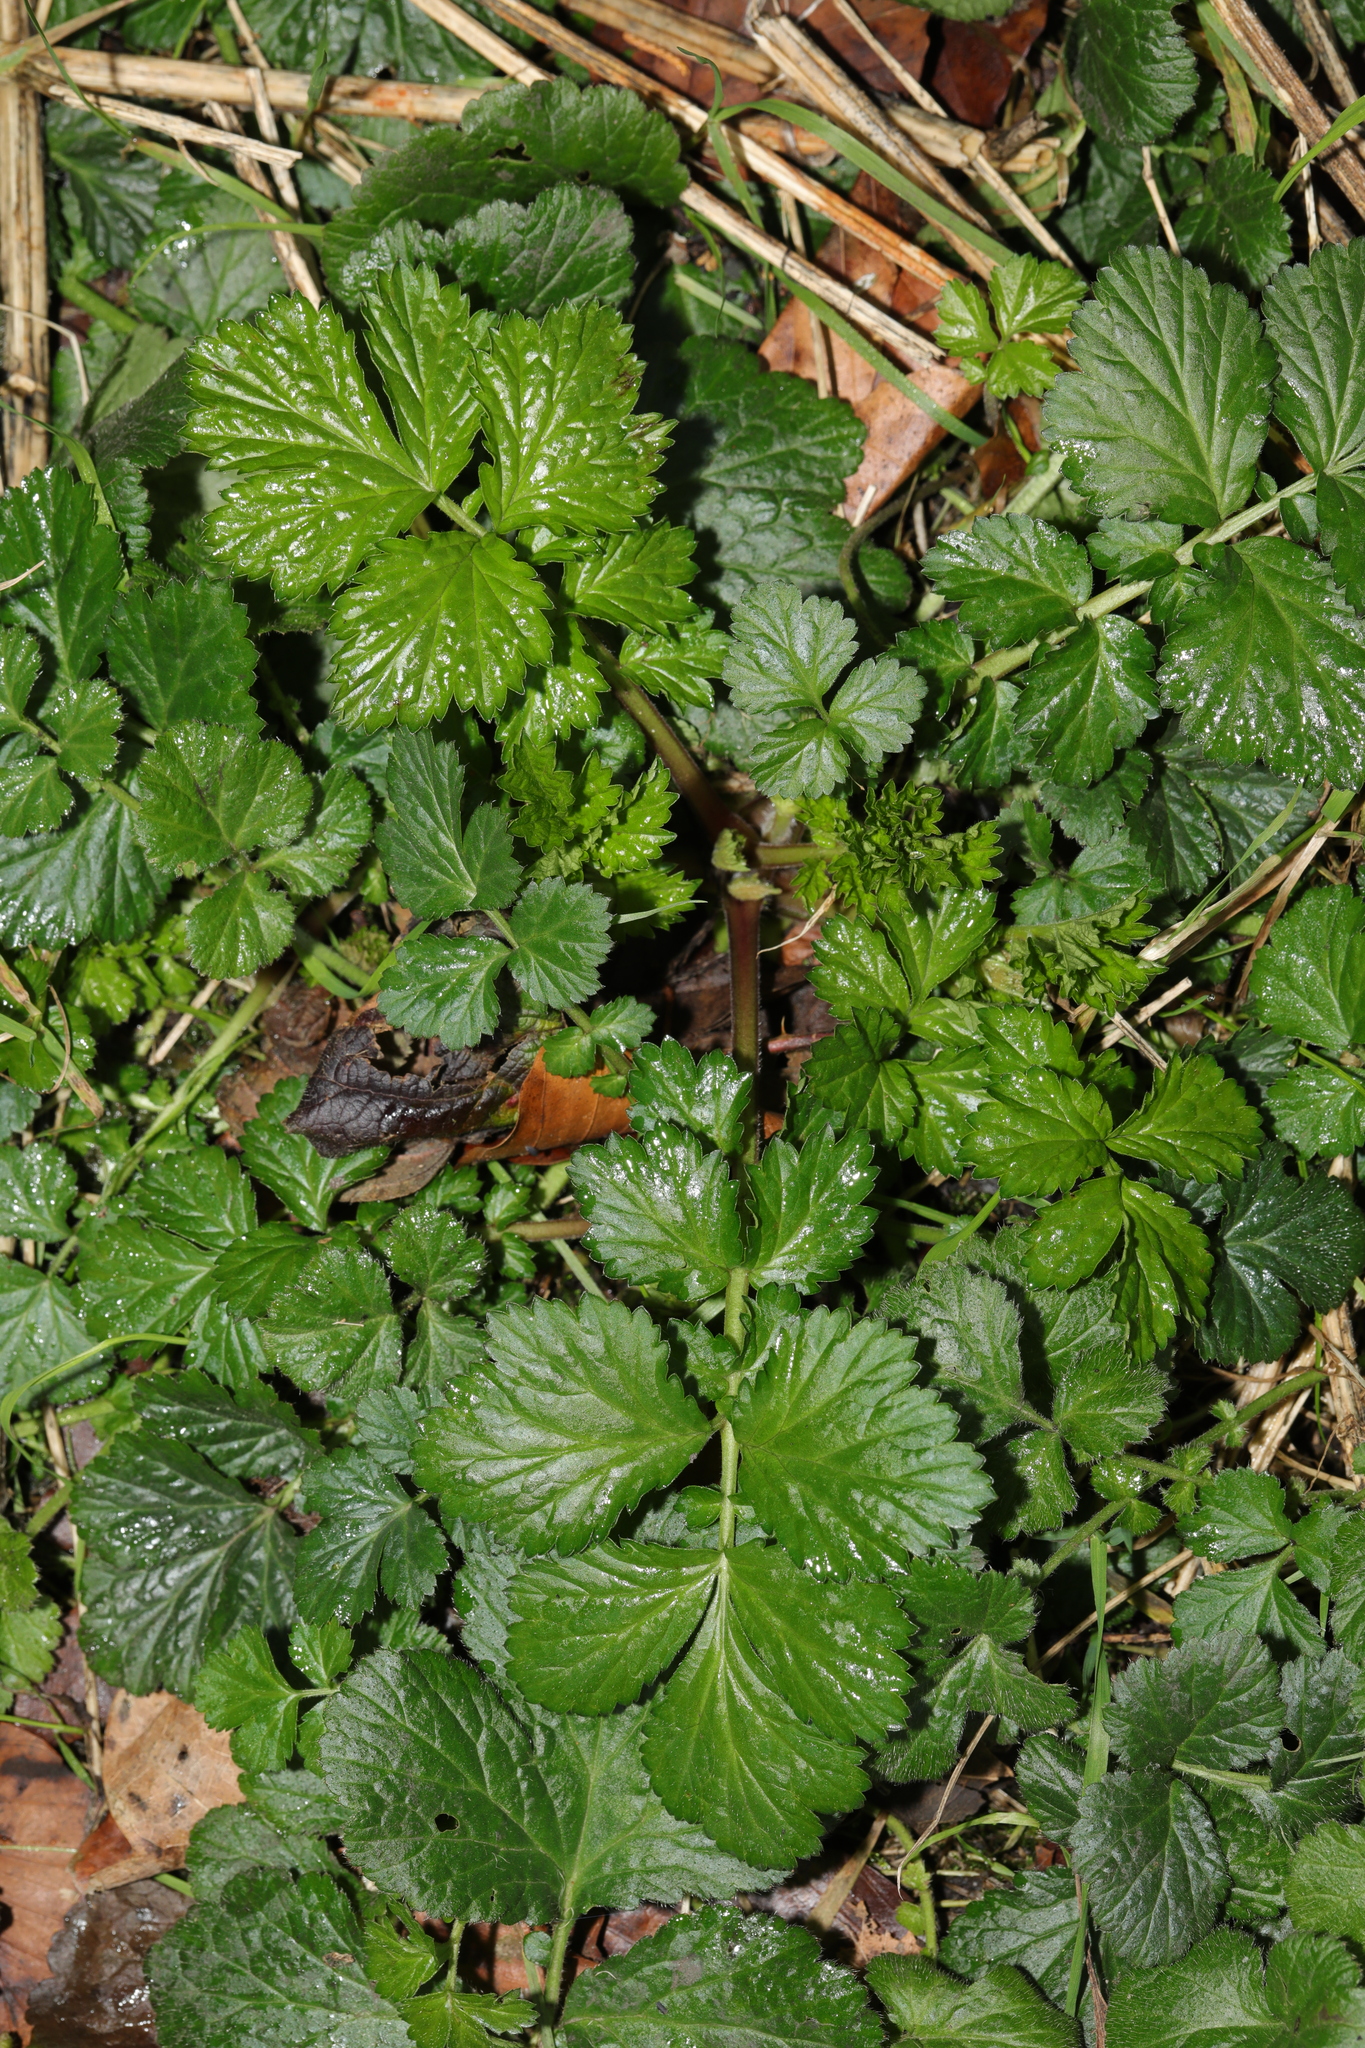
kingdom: Plantae
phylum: Tracheophyta
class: Magnoliopsida
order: Rosales
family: Rosaceae
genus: Geum
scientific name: Geum urbanum
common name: Wood avens
